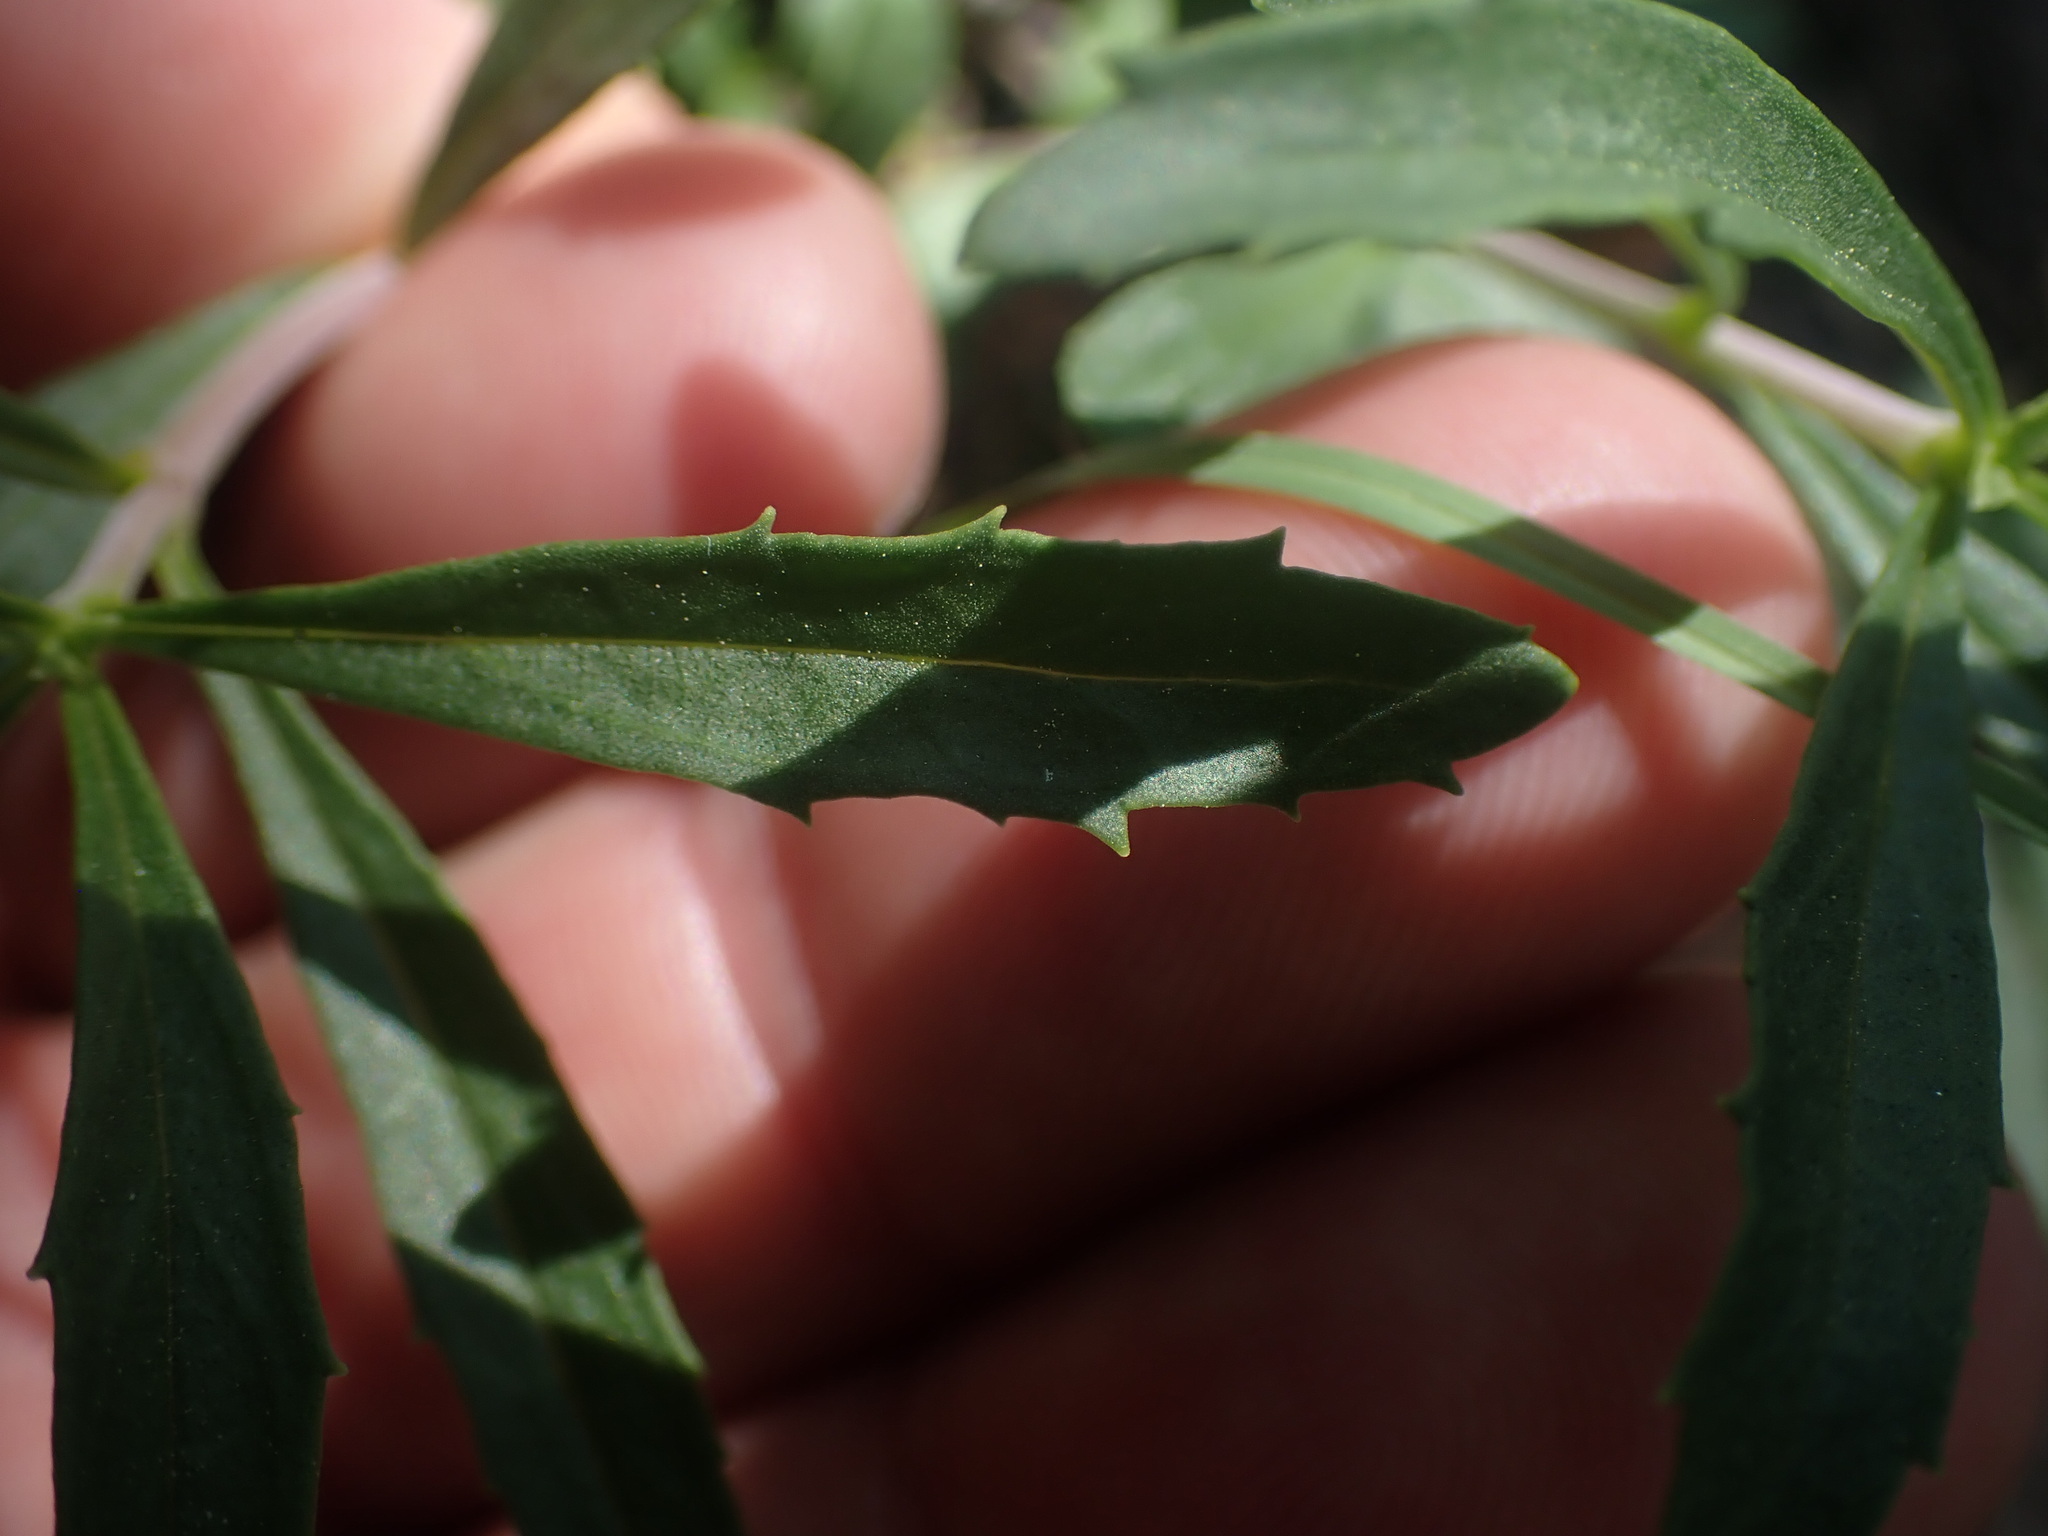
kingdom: Plantae
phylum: Tracheophyta
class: Magnoliopsida
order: Lamiales
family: Plantaginaceae
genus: Penstemon
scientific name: Penstemon fruticosus
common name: Bush penstemon
